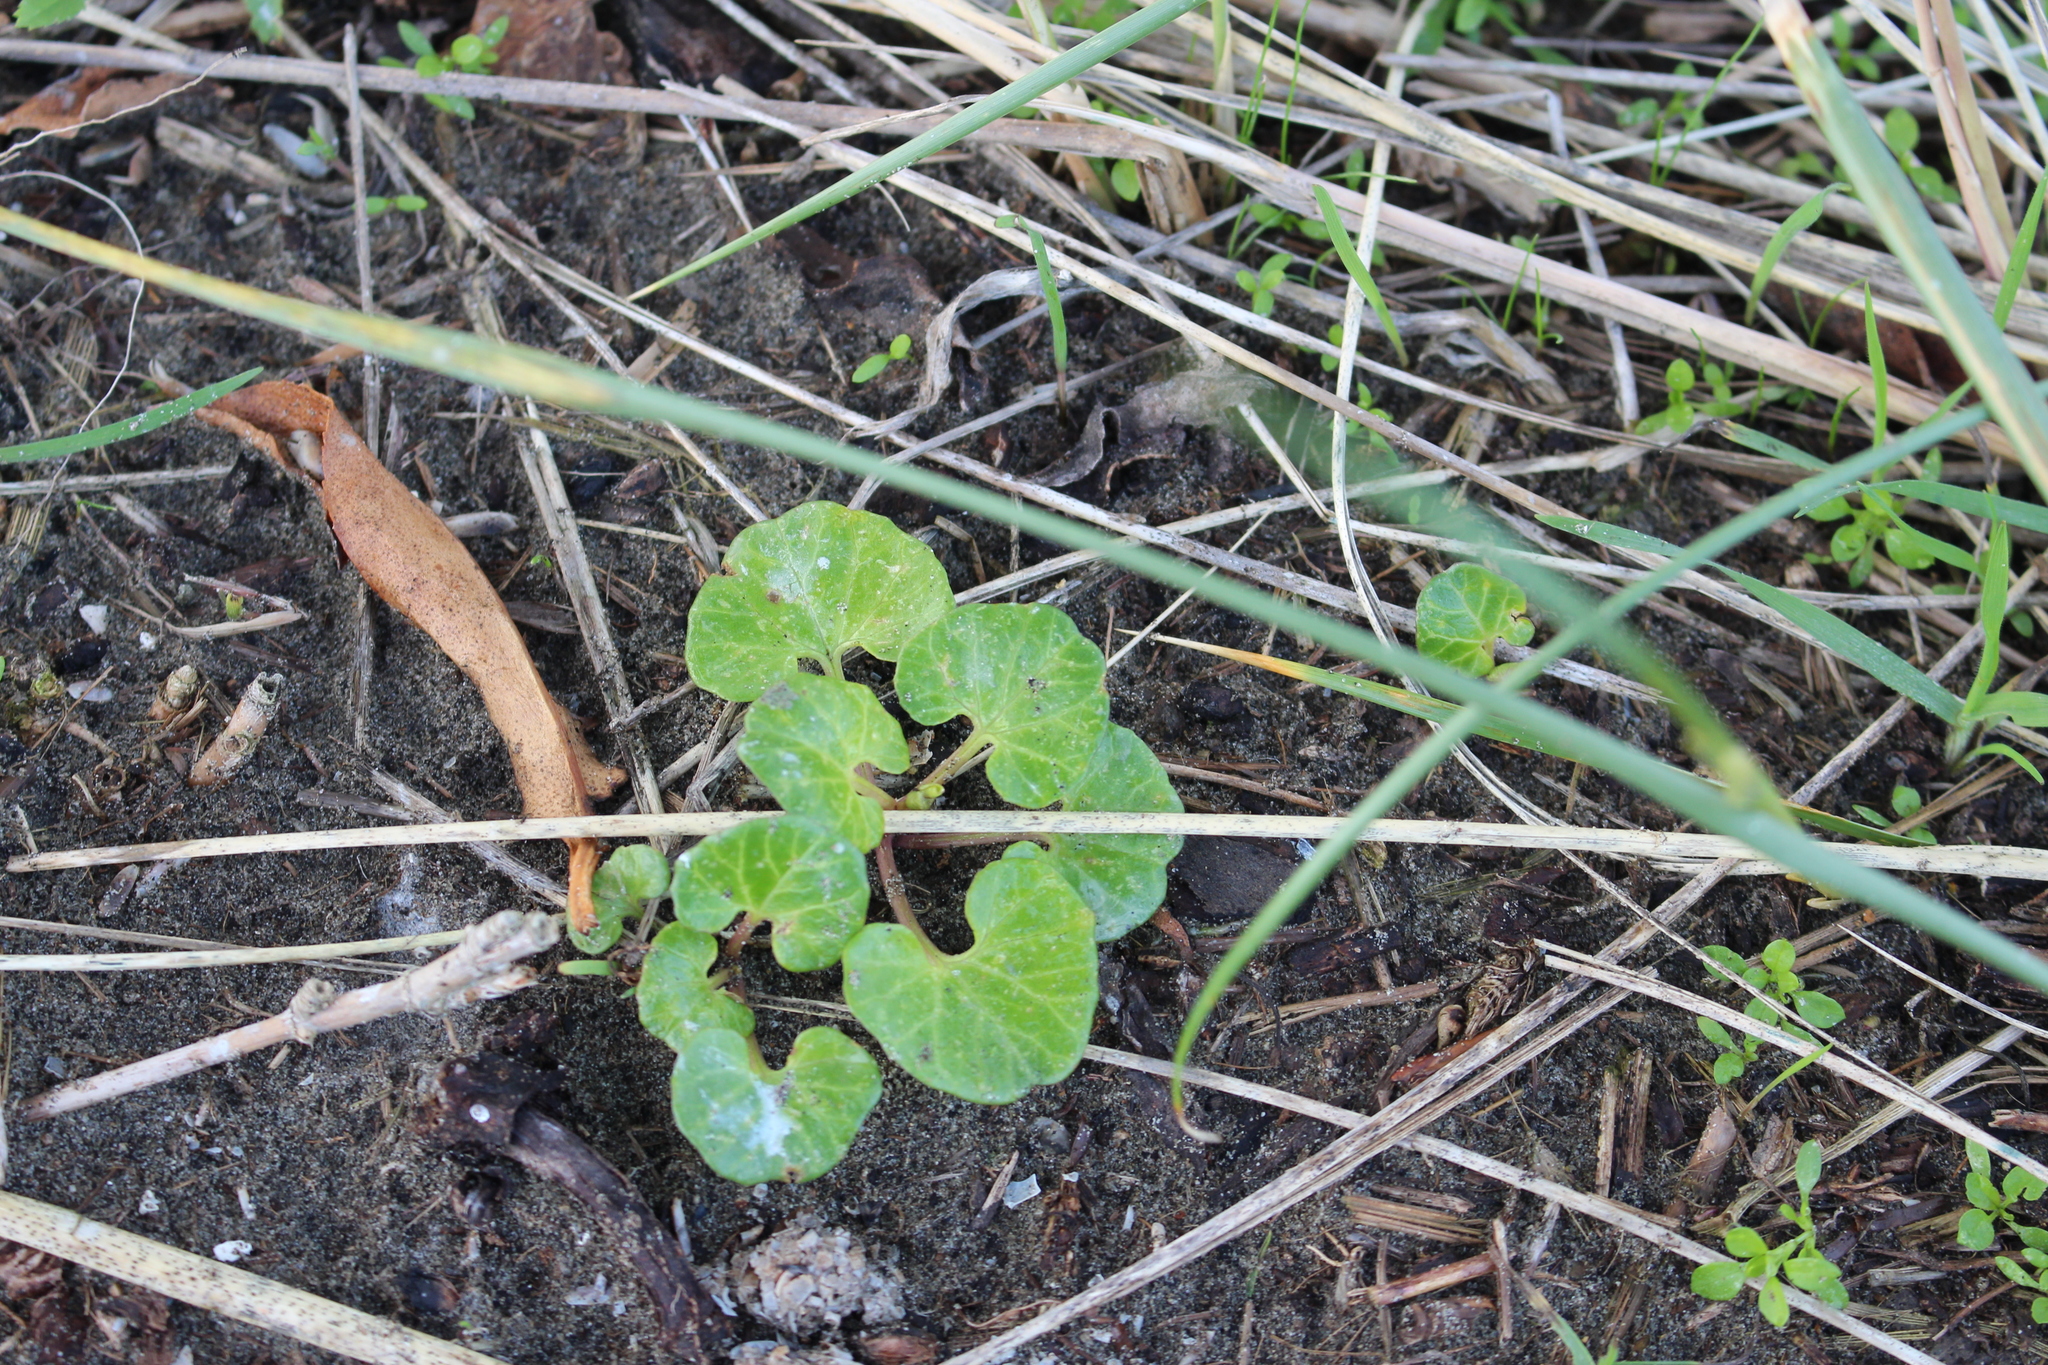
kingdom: Plantae
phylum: Tracheophyta
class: Magnoliopsida
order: Solanales
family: Convolvulaceae
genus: Calystegia
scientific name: Calystegia soldanella
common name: Sea bindweed
